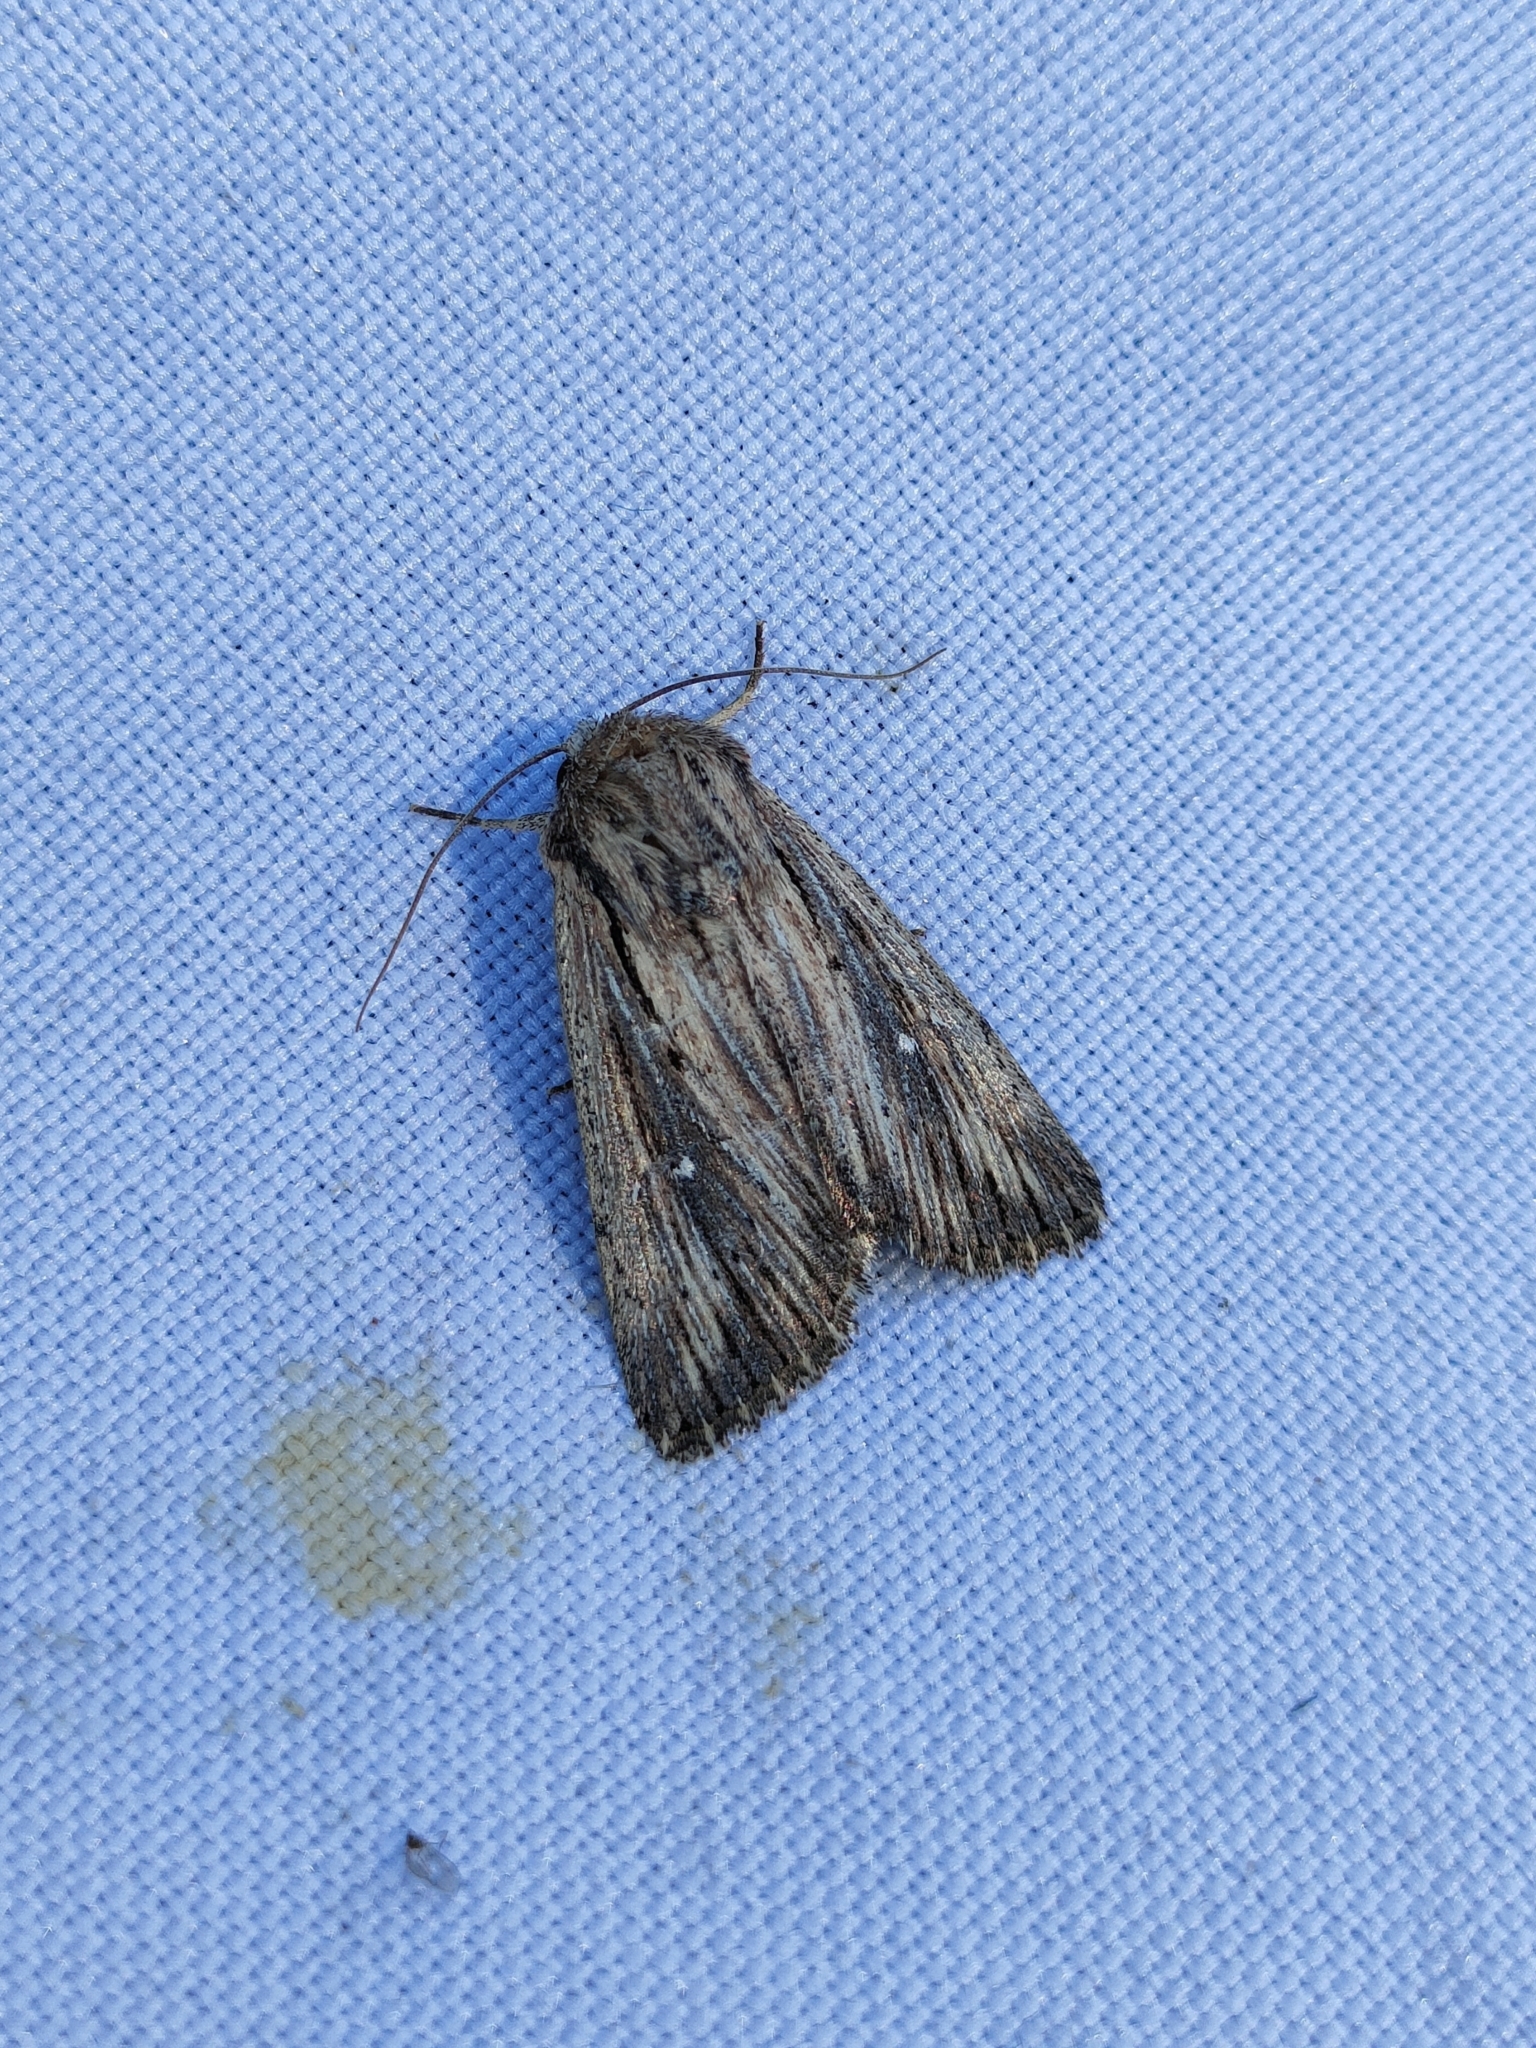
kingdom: Animalia
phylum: Arthropoda
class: Insecta
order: Lepidoptera
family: Noctuidae
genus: Leucania
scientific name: Leucania putrescens
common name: Devonshire wainscot
